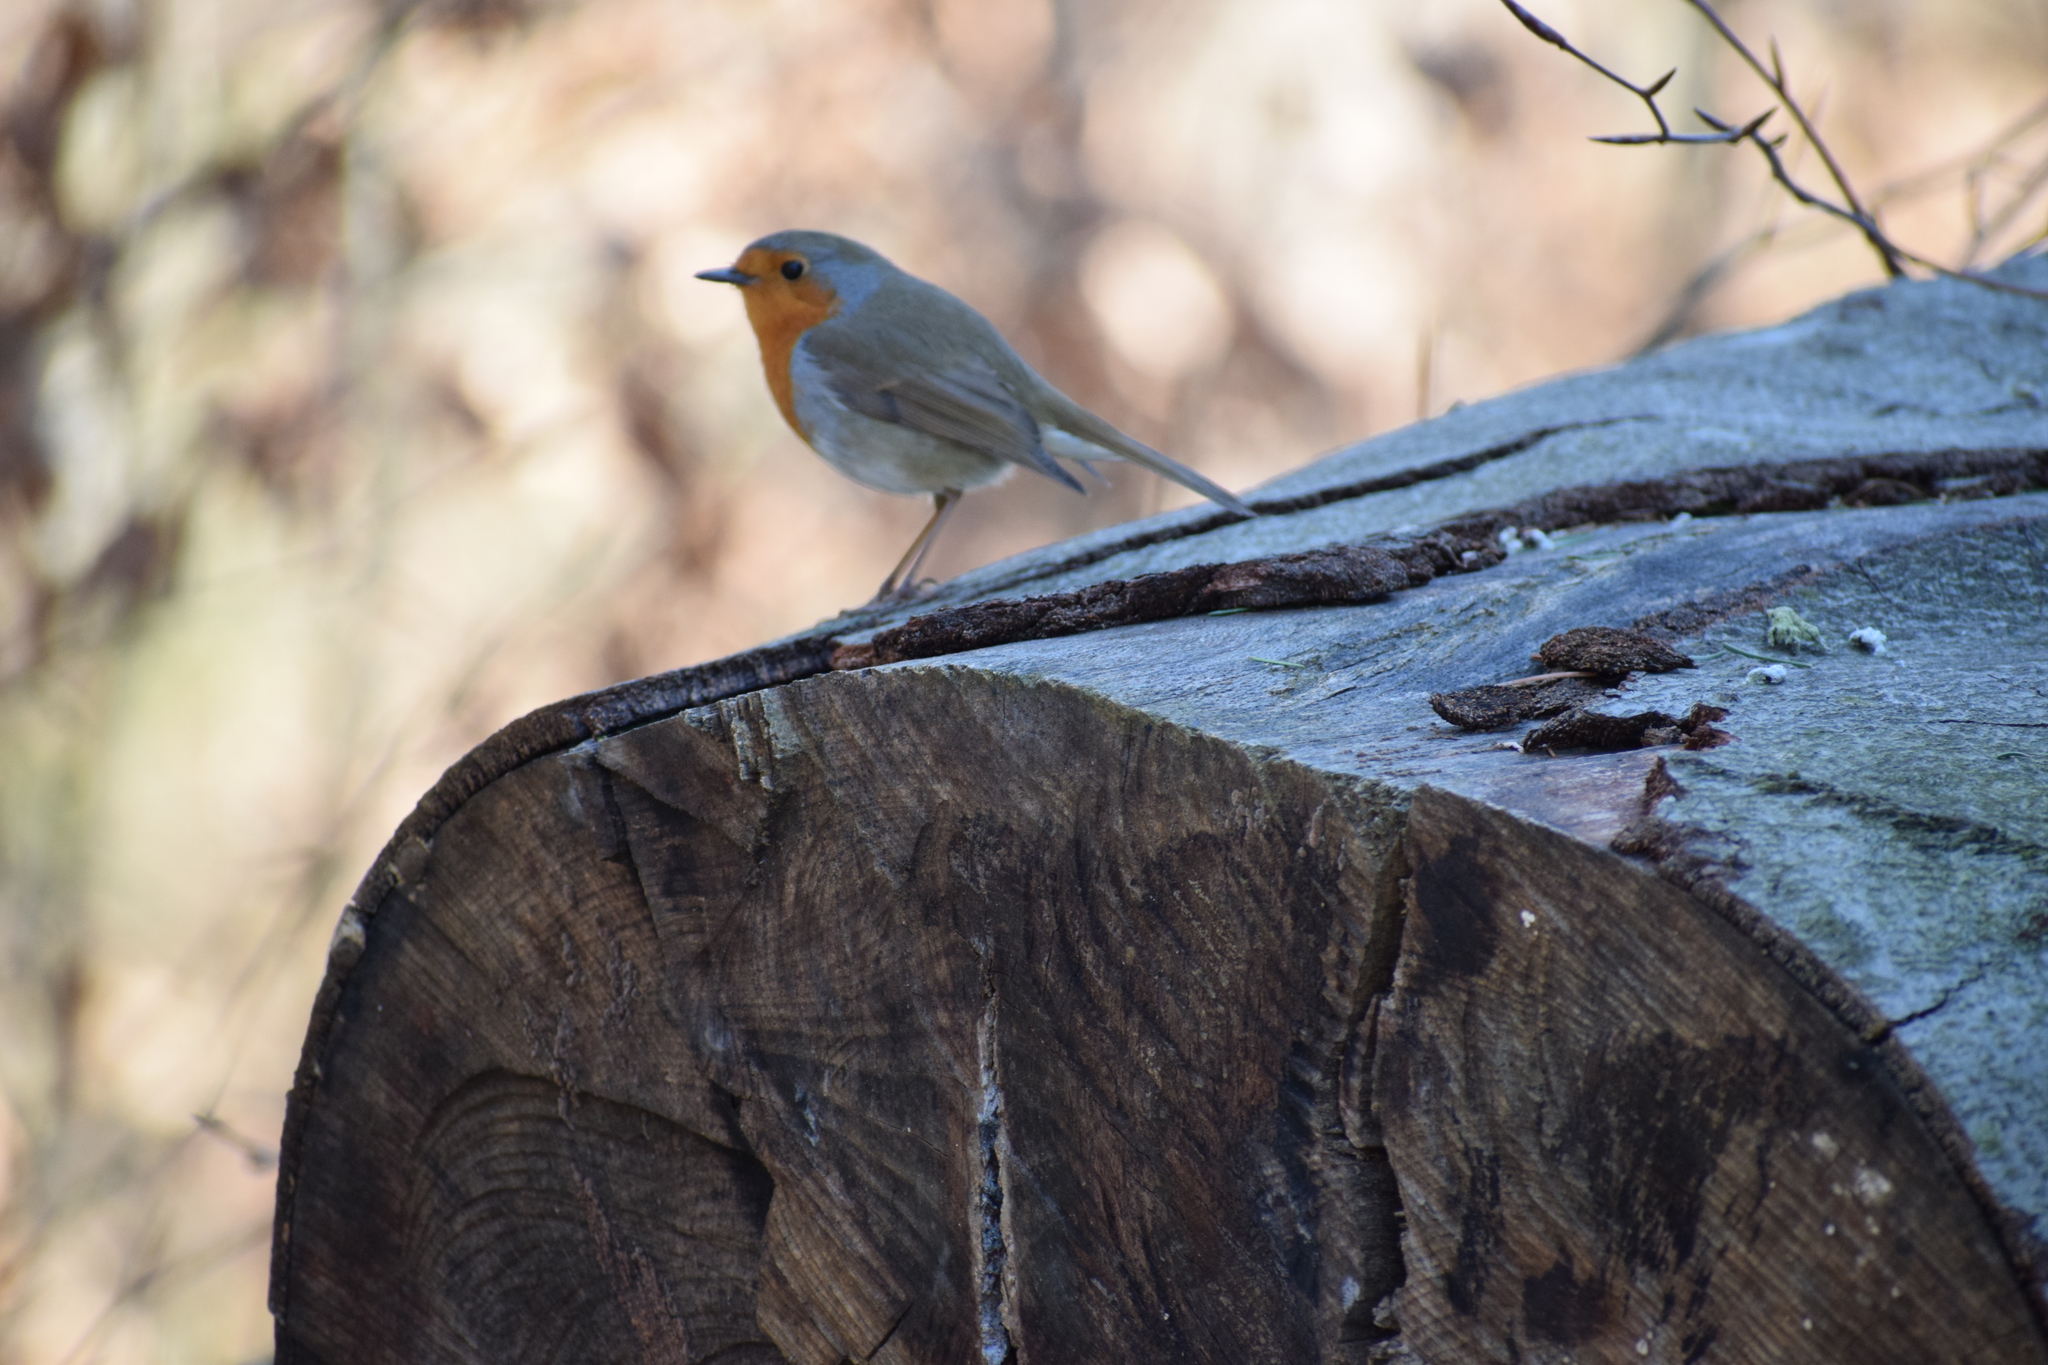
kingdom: Animalia
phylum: Chordata
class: Aves
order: Passeriformes
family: Muscicapidae
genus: Erithacus
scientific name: Erithacus rubecula
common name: European robin
